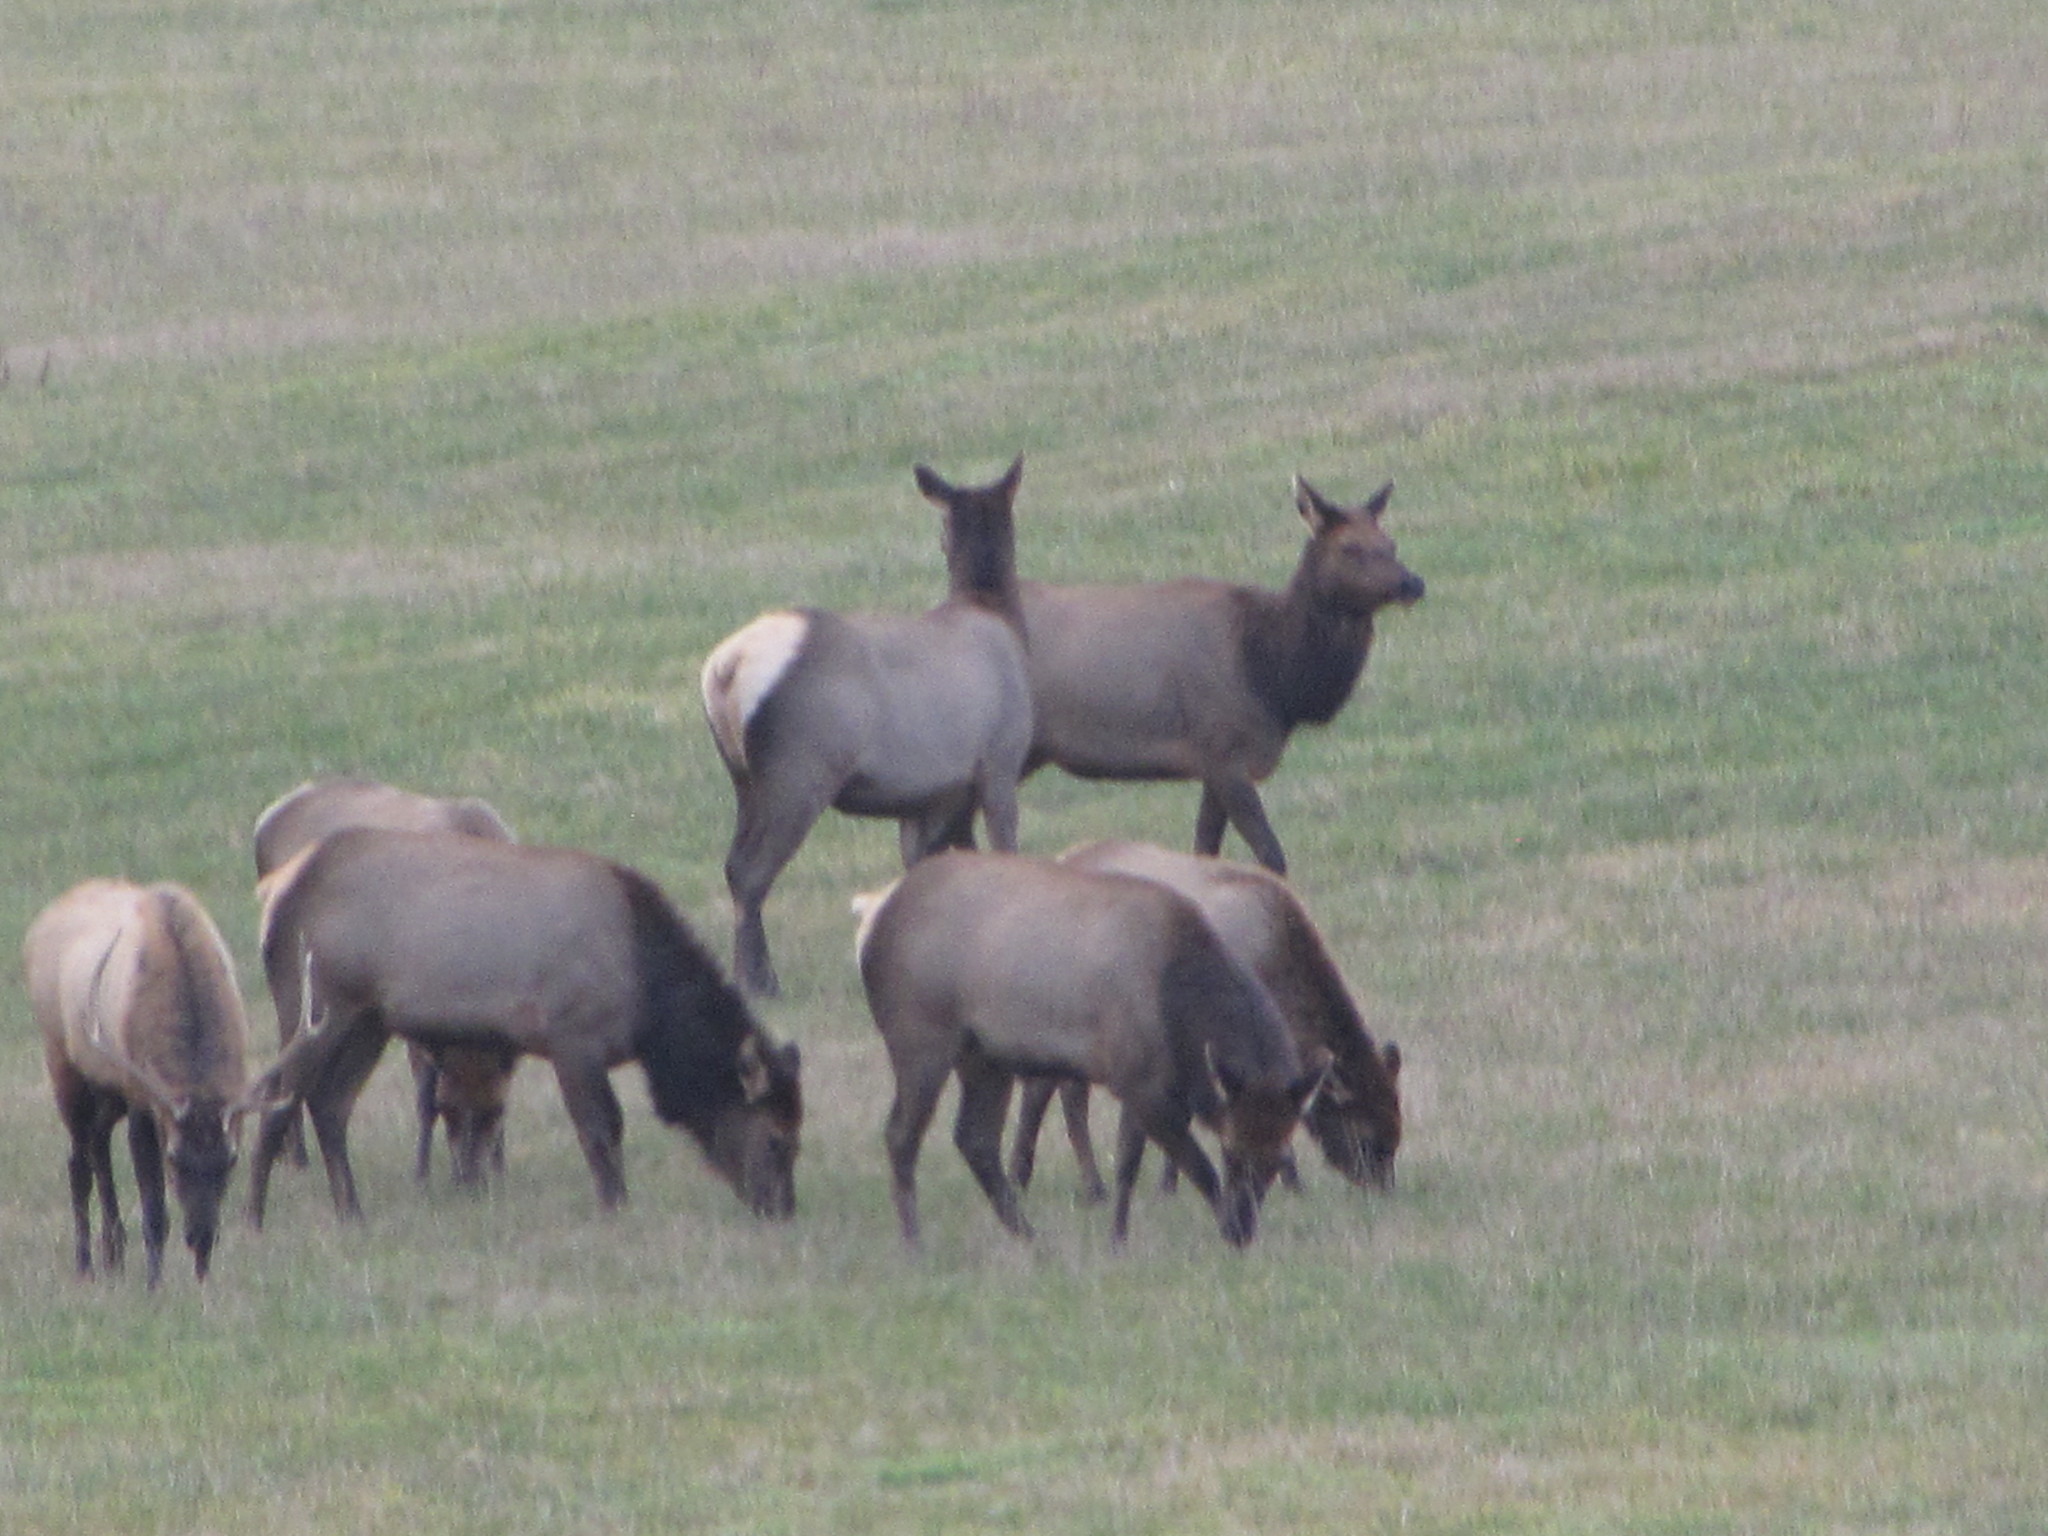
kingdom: Animalia
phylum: Chordata
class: Mammalia
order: Artiodactyla
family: Cervidae
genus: Cervus
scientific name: Cervus elaphus
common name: Red deer
